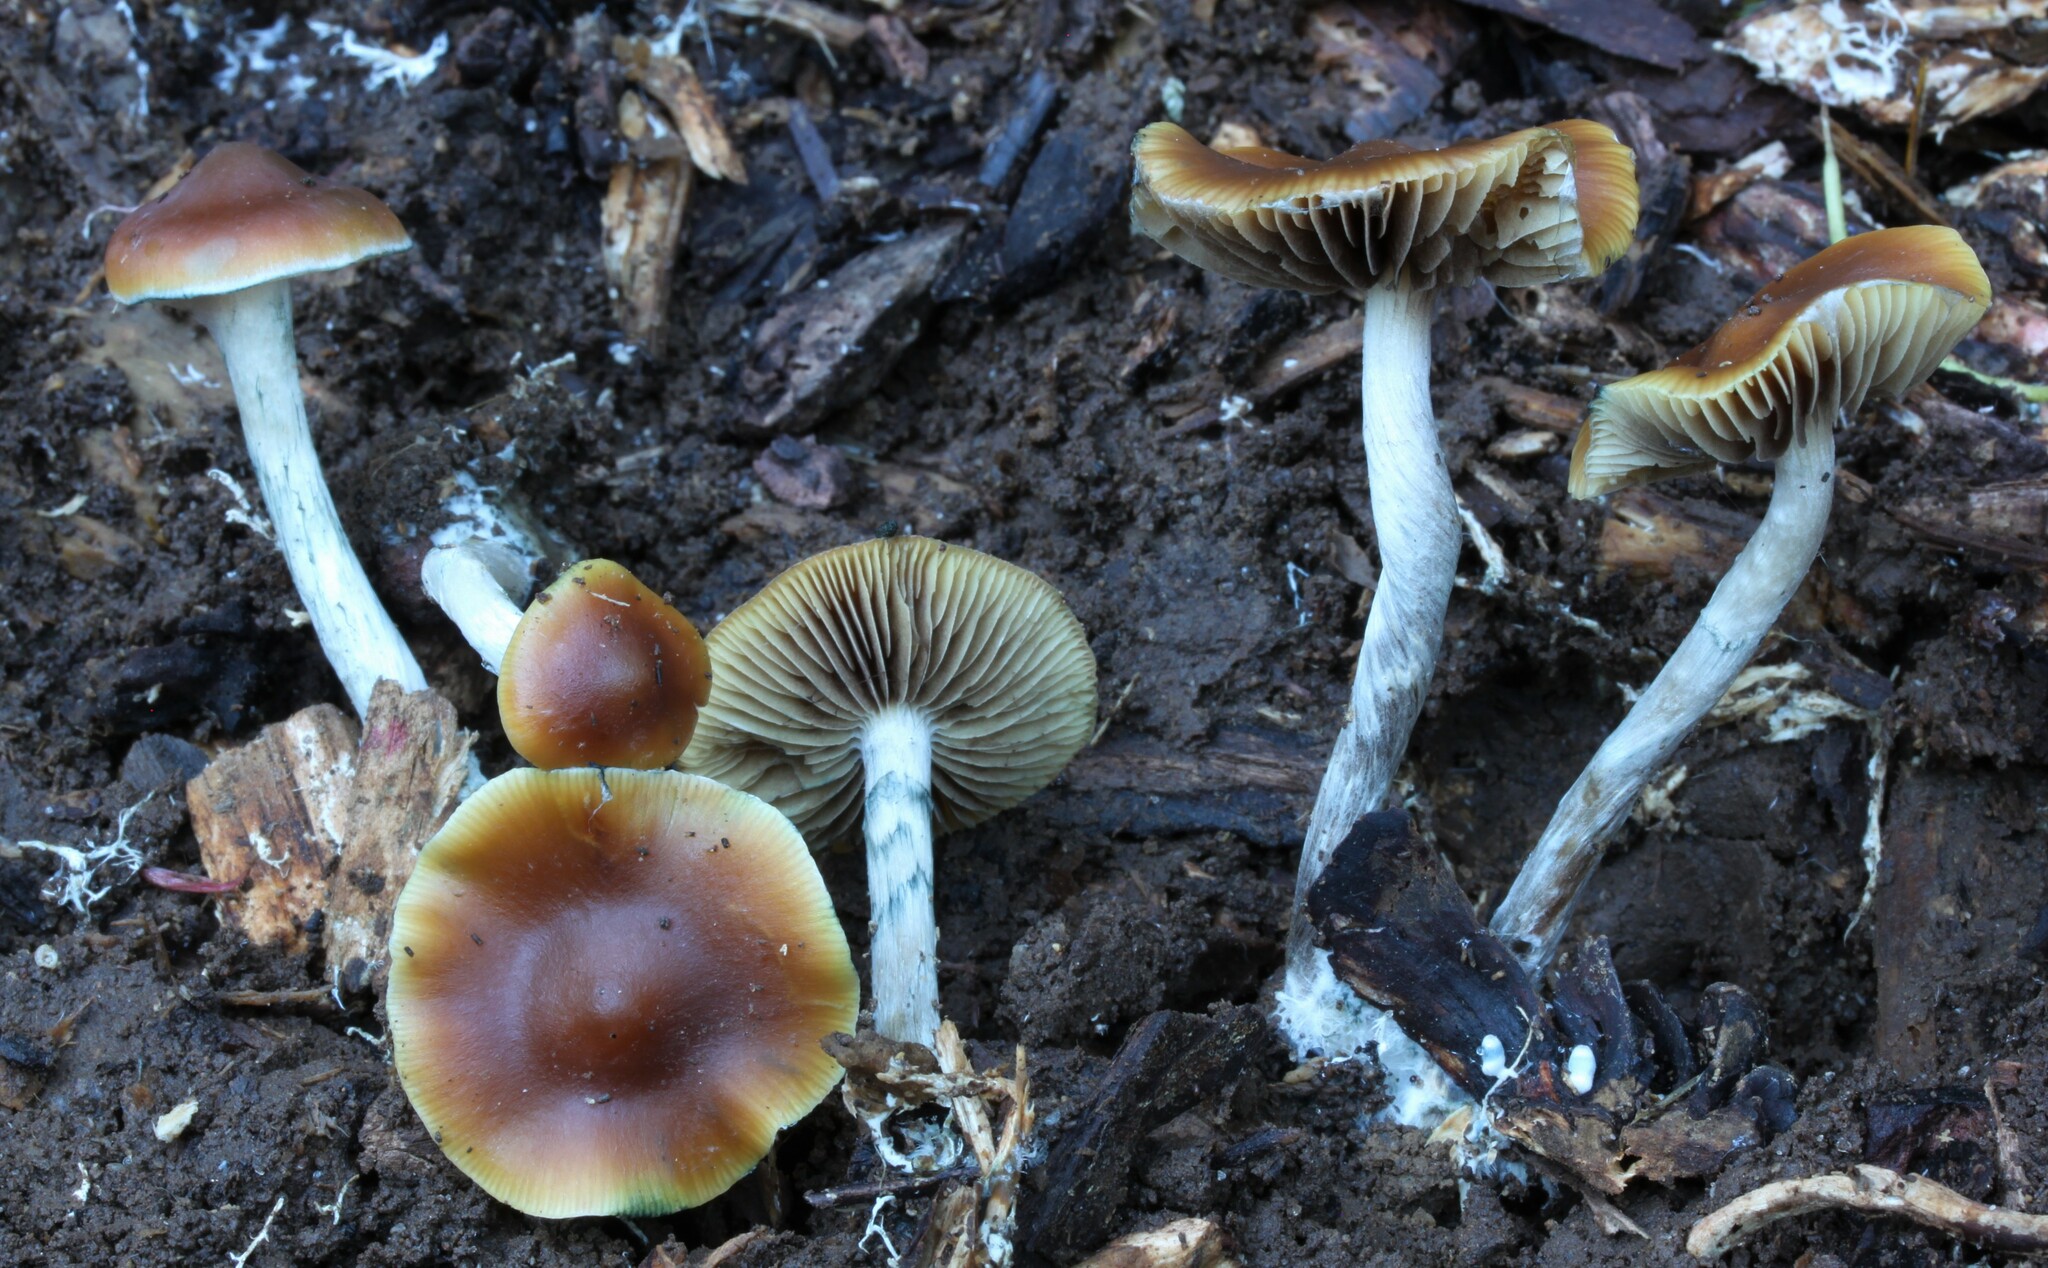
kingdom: Fungi
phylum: Basidiomycota
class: Agaricomycetes
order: Agaricales
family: Hymenogastraceae
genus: Psilocybe
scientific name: Psilocybe subaeruginosa
